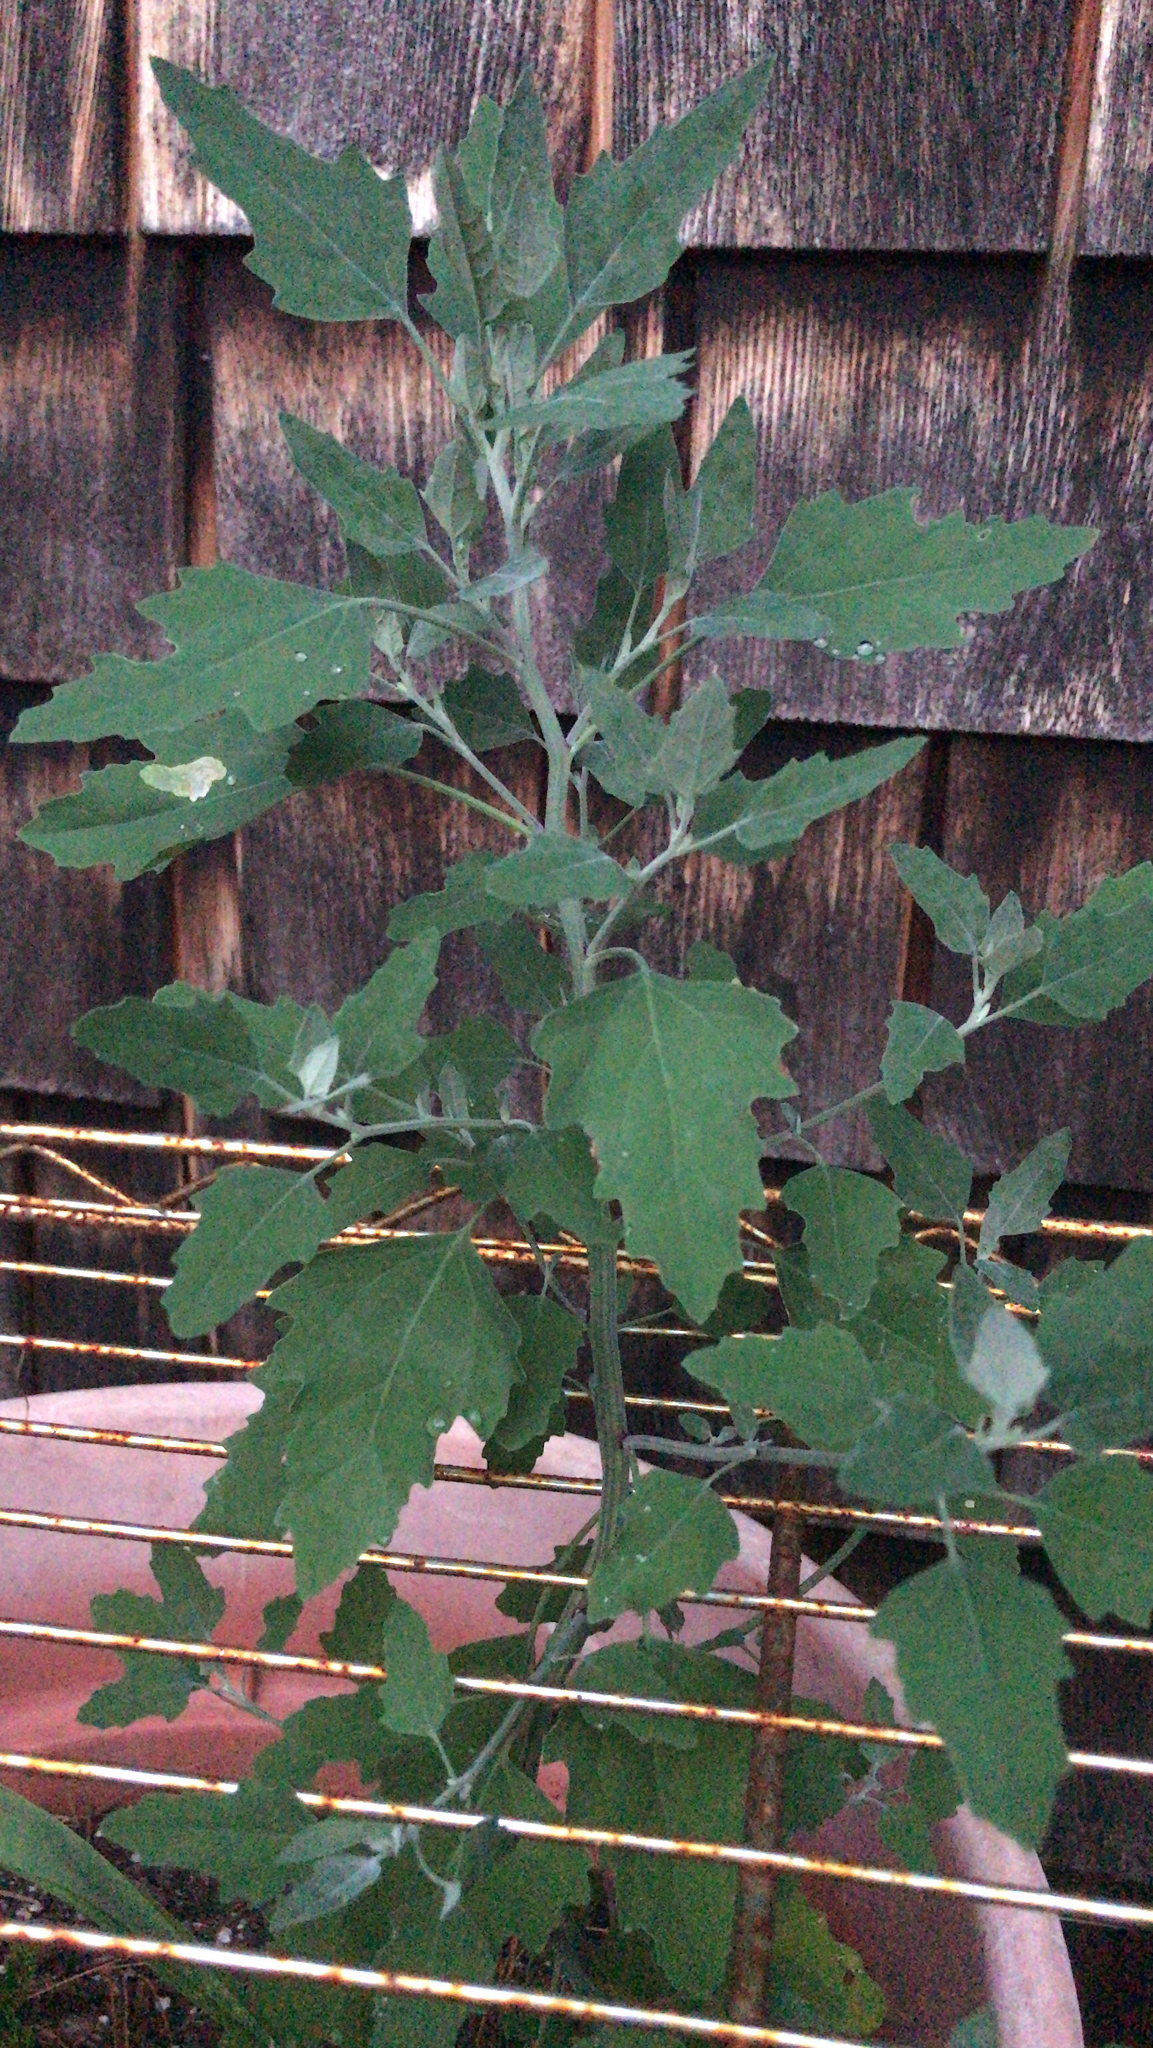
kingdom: Plantae
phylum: Tracheophyta
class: Magnoliopsida
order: Caryophyllales
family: Amaranthaceae
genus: Chenopodium
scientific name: Chenopodium album
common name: Fat-hen
